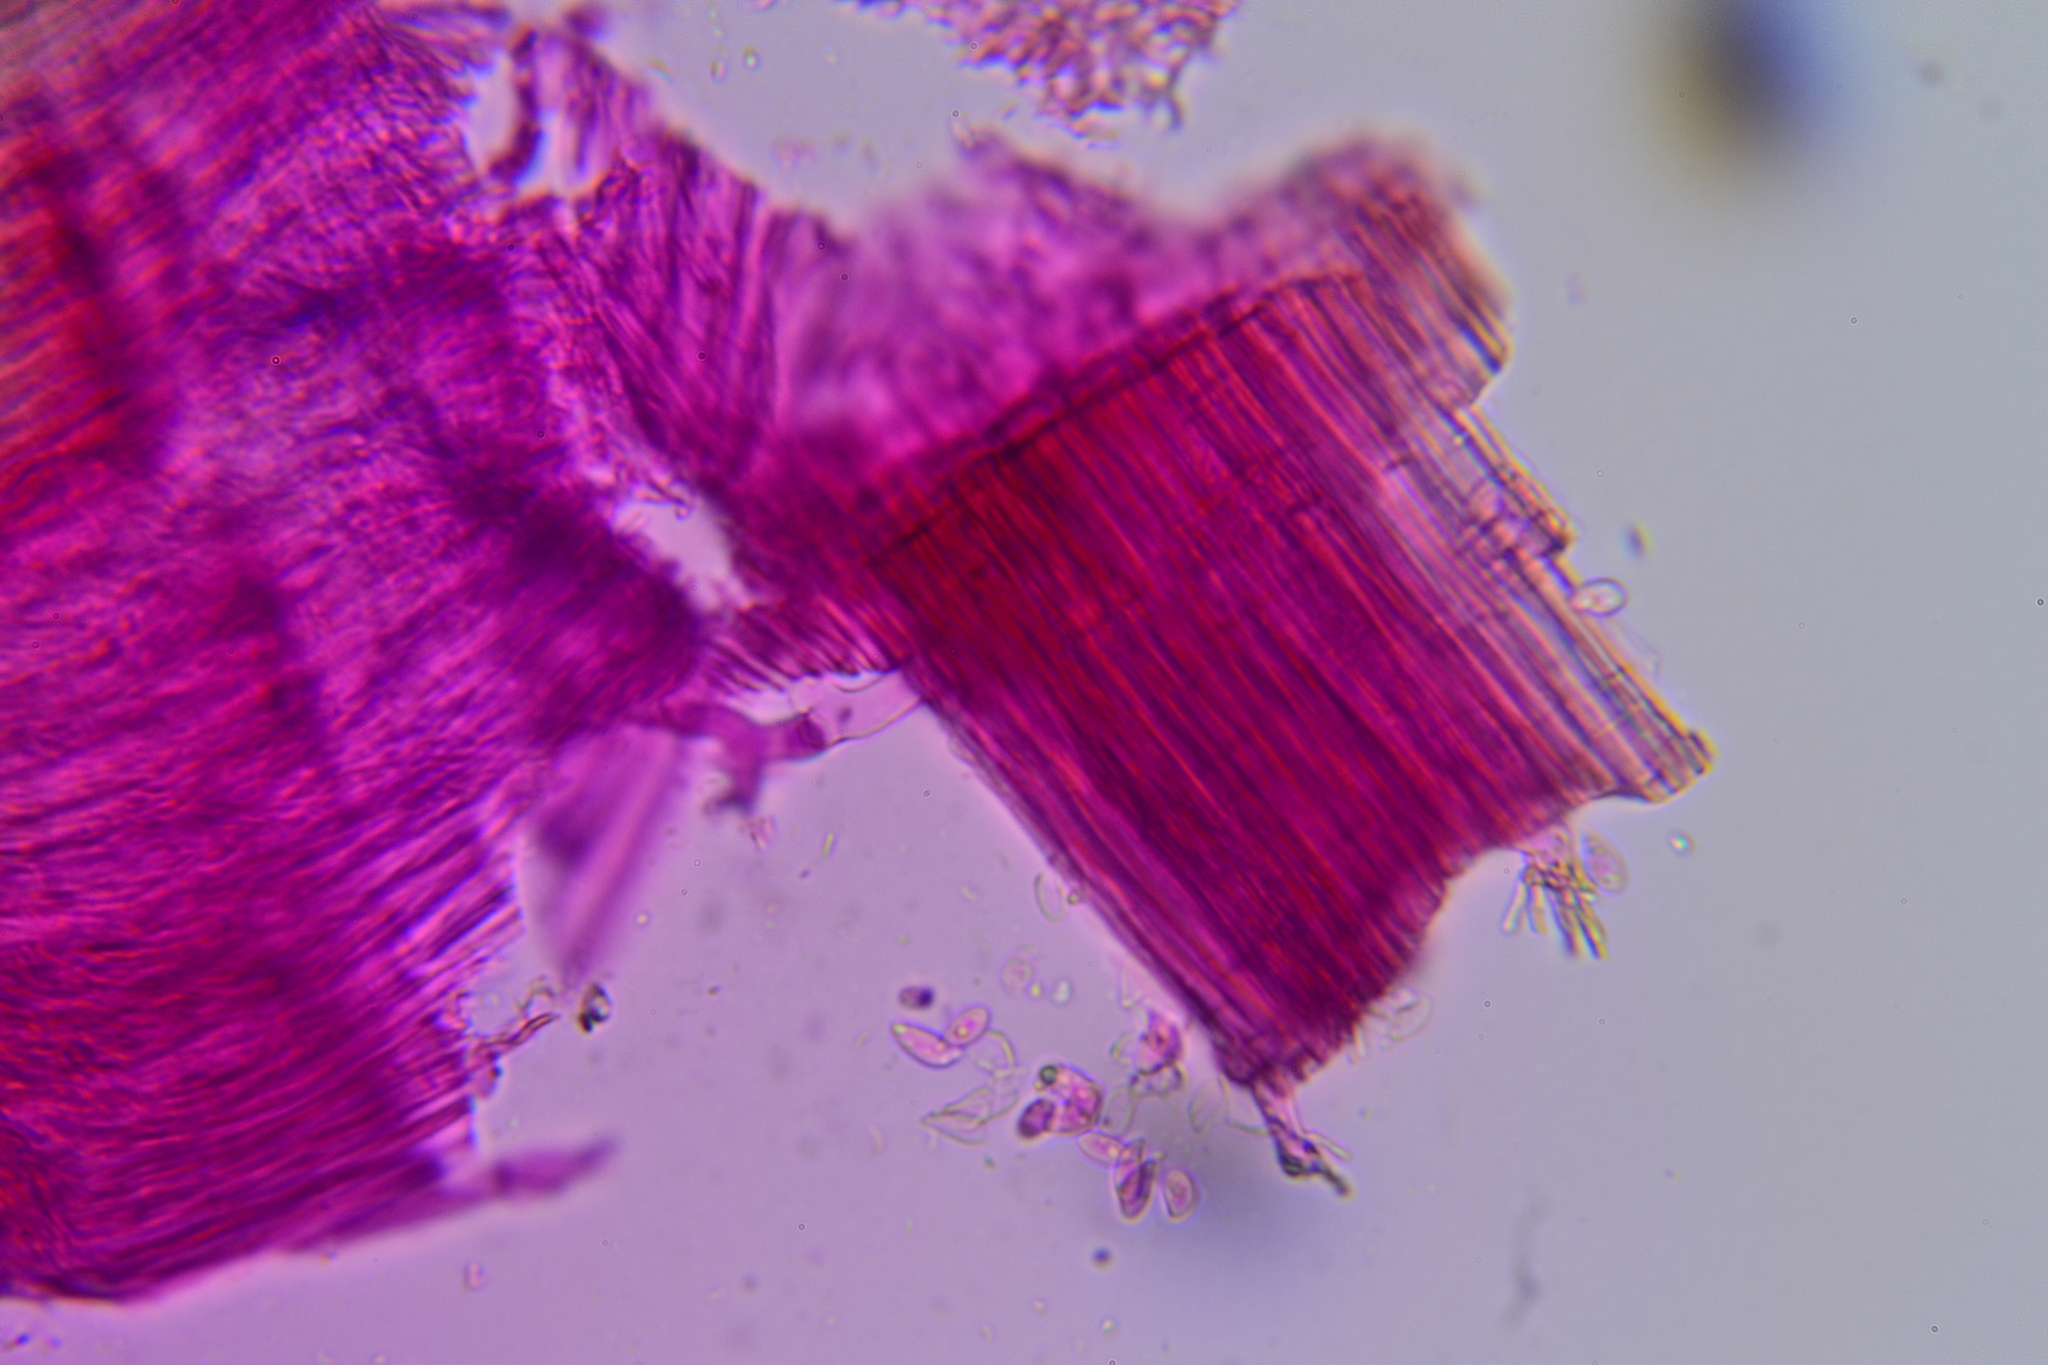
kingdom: Fungi
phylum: Basidiomycota
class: Agaricomycetes
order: Agaricales
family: Marasmiaceae
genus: Marasmius
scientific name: Marasmius sullivantii
